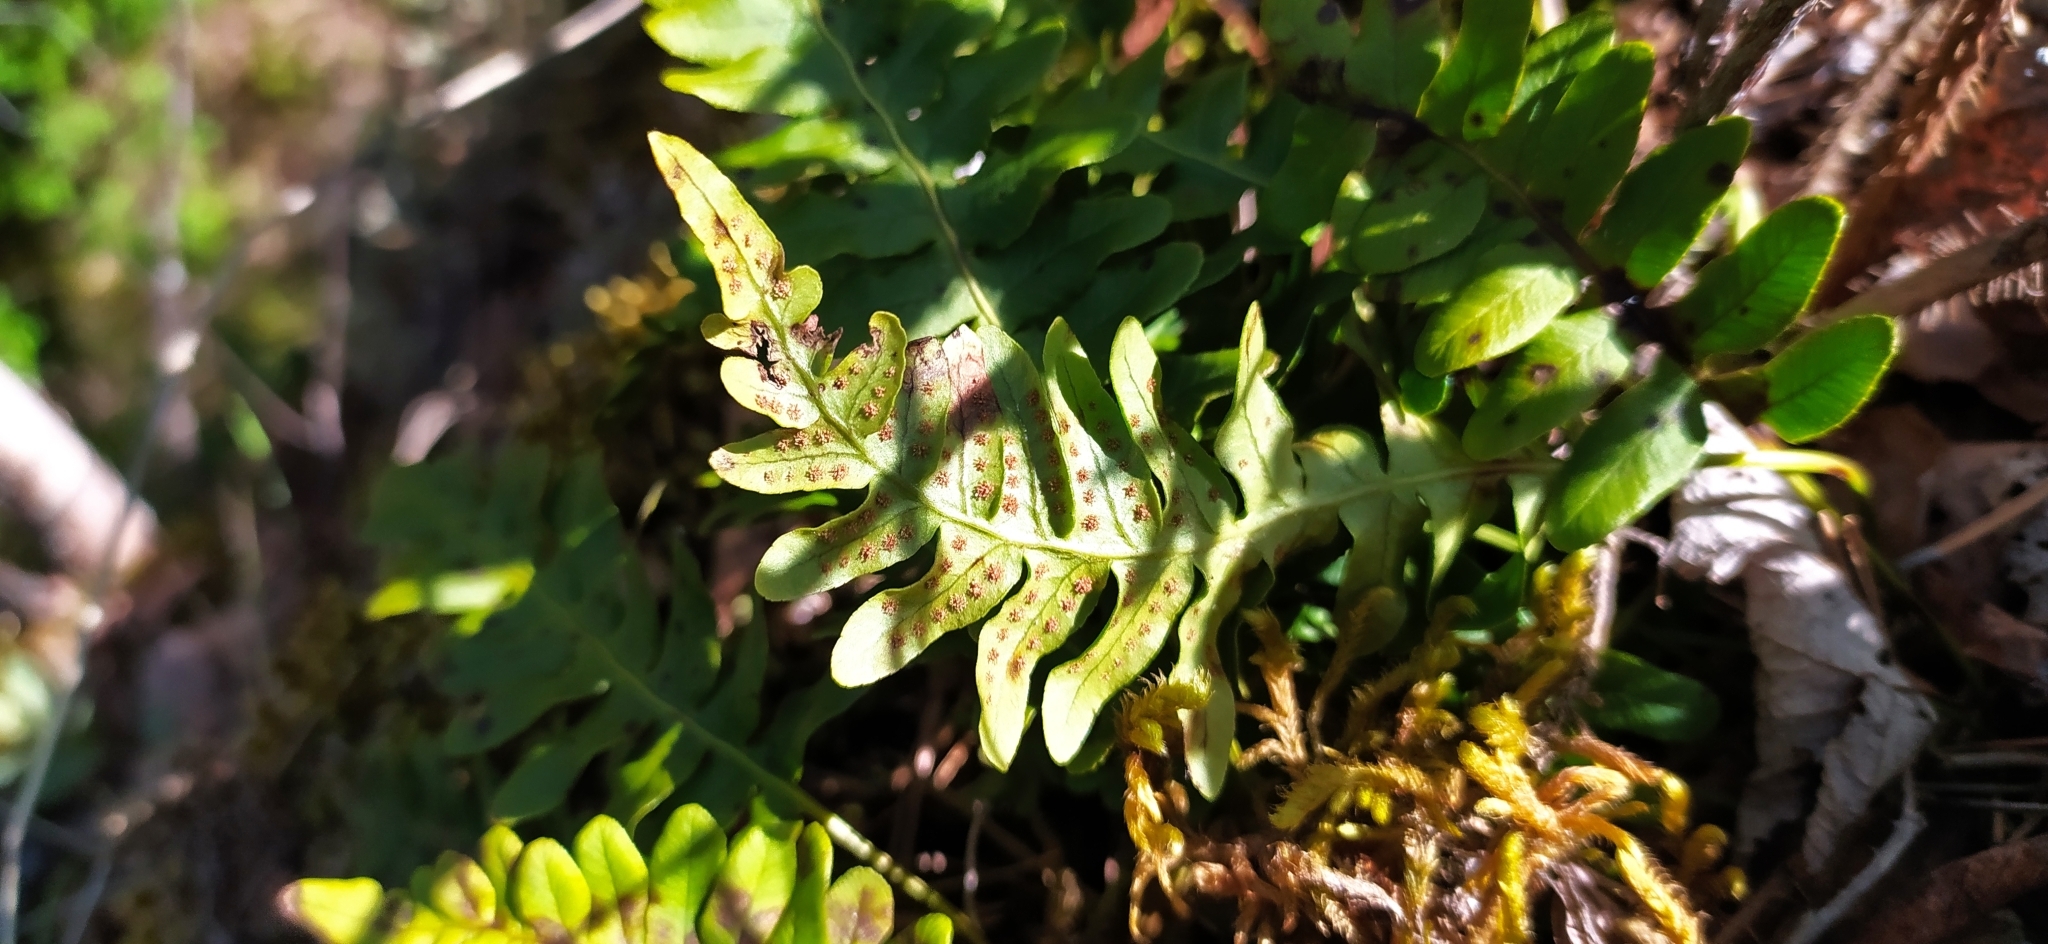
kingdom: Plantae
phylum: Tracheophyta
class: Polypodiopsida
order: Polypodiales
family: Polypodiaceae
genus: Polypodium
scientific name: Polypodium vulgare
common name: Common polypody
